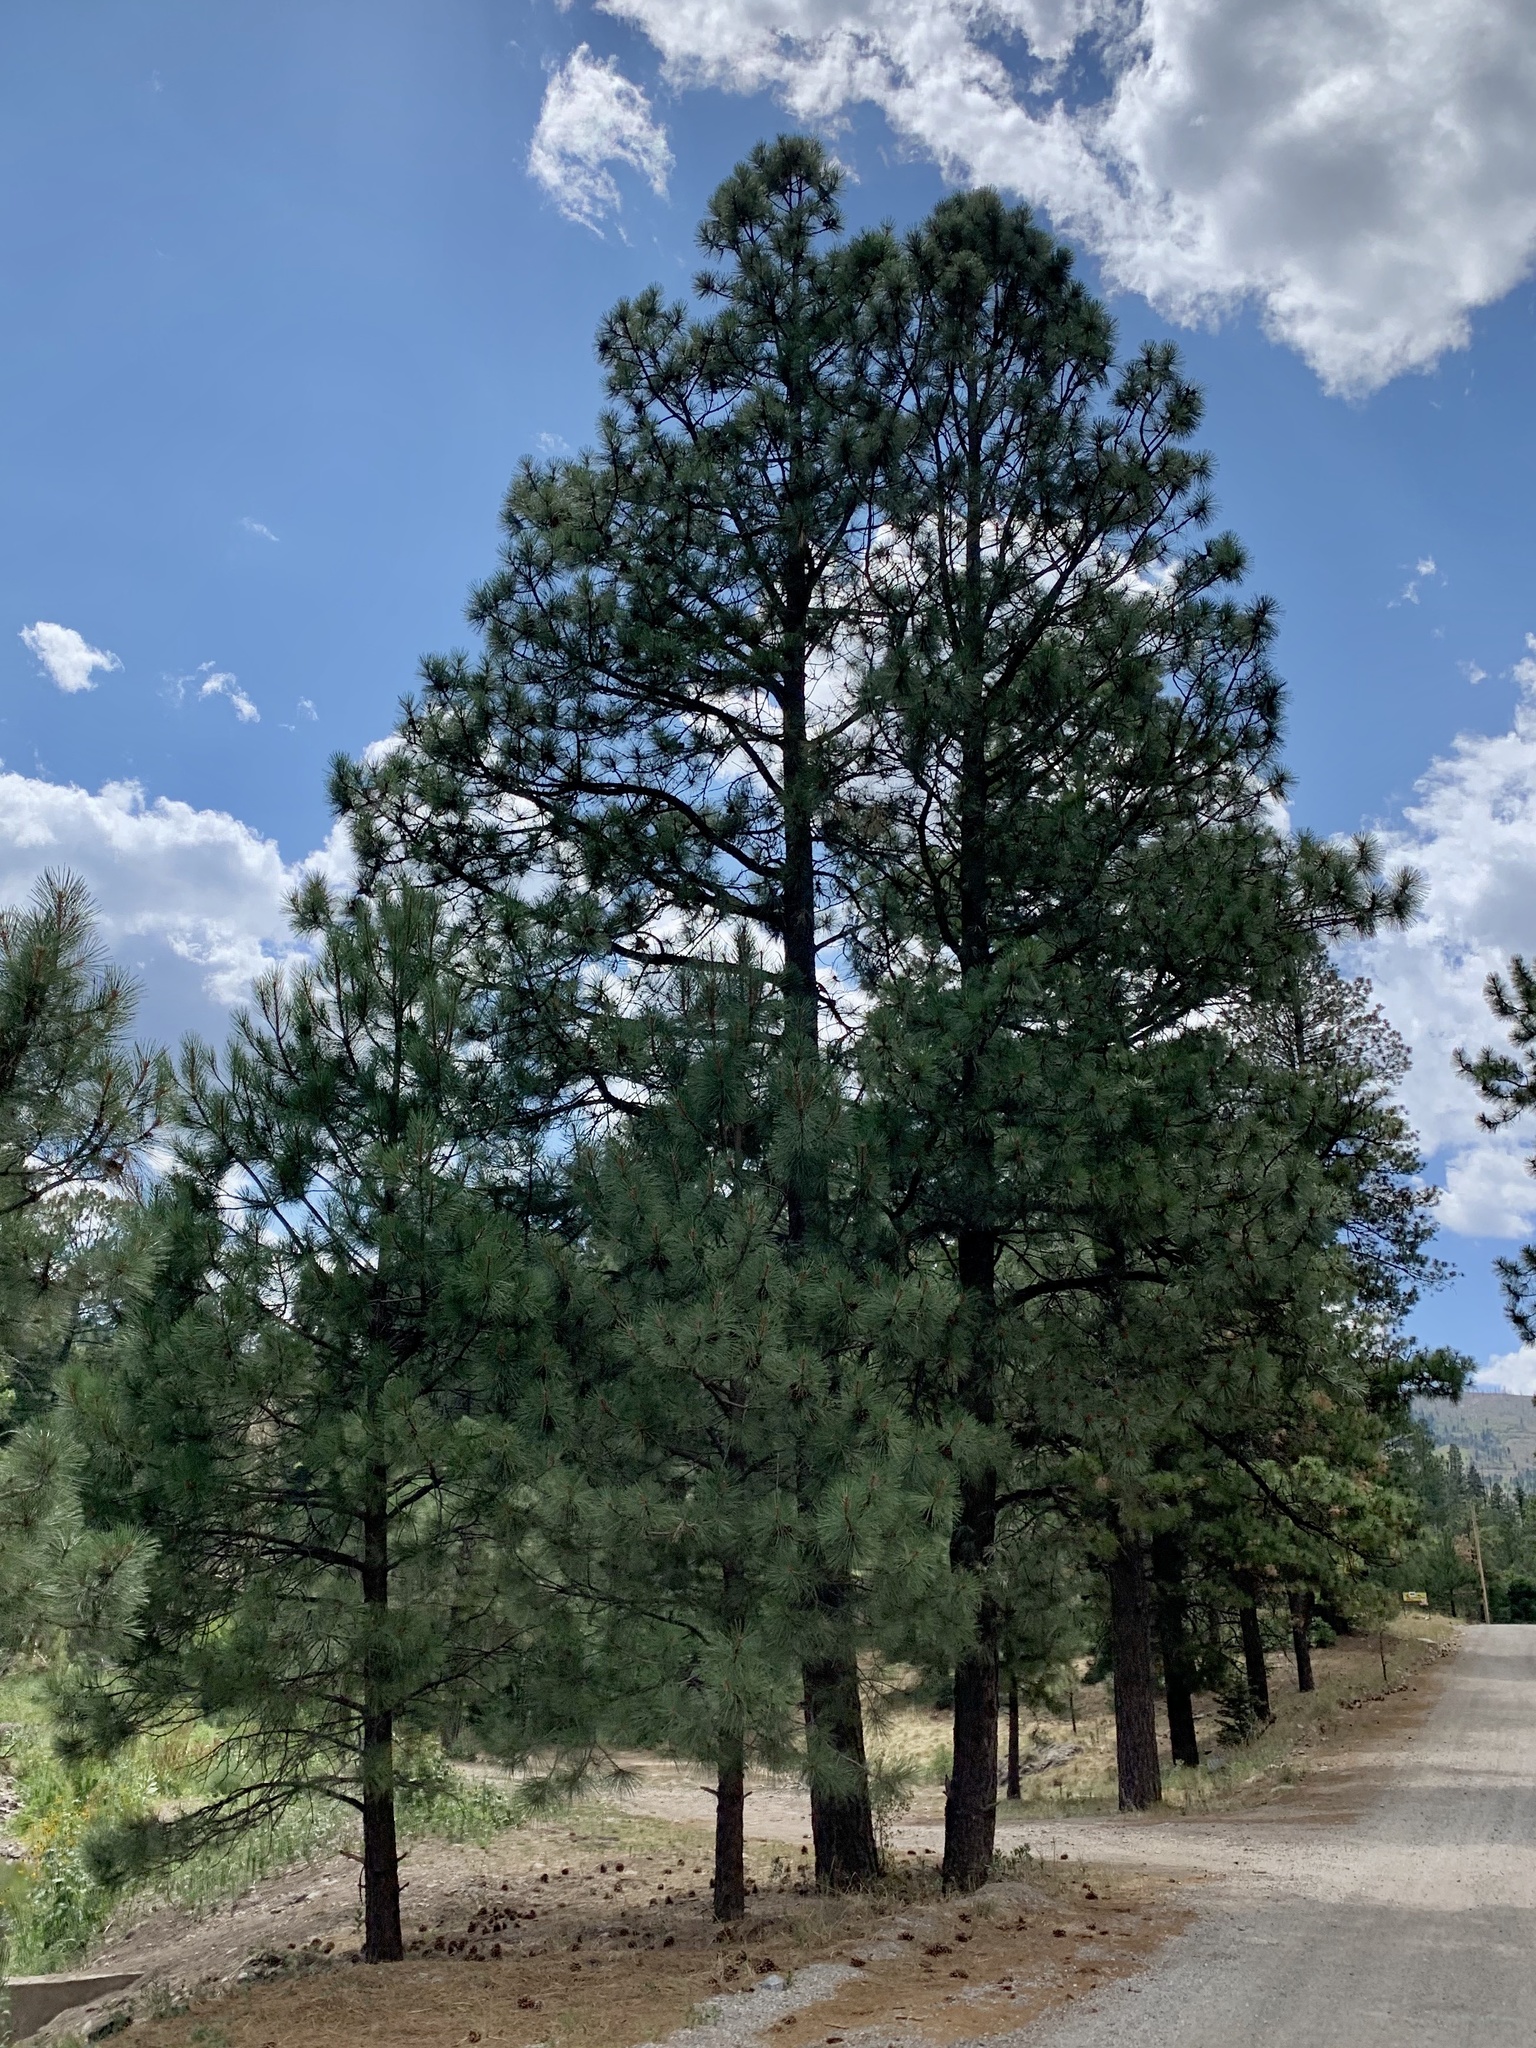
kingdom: Plantae
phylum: Tracheophyta
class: Pinopsida
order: Pinales
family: Pinaceae
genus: Pinus
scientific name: Pinus ponderosa
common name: Western yellow-pine
